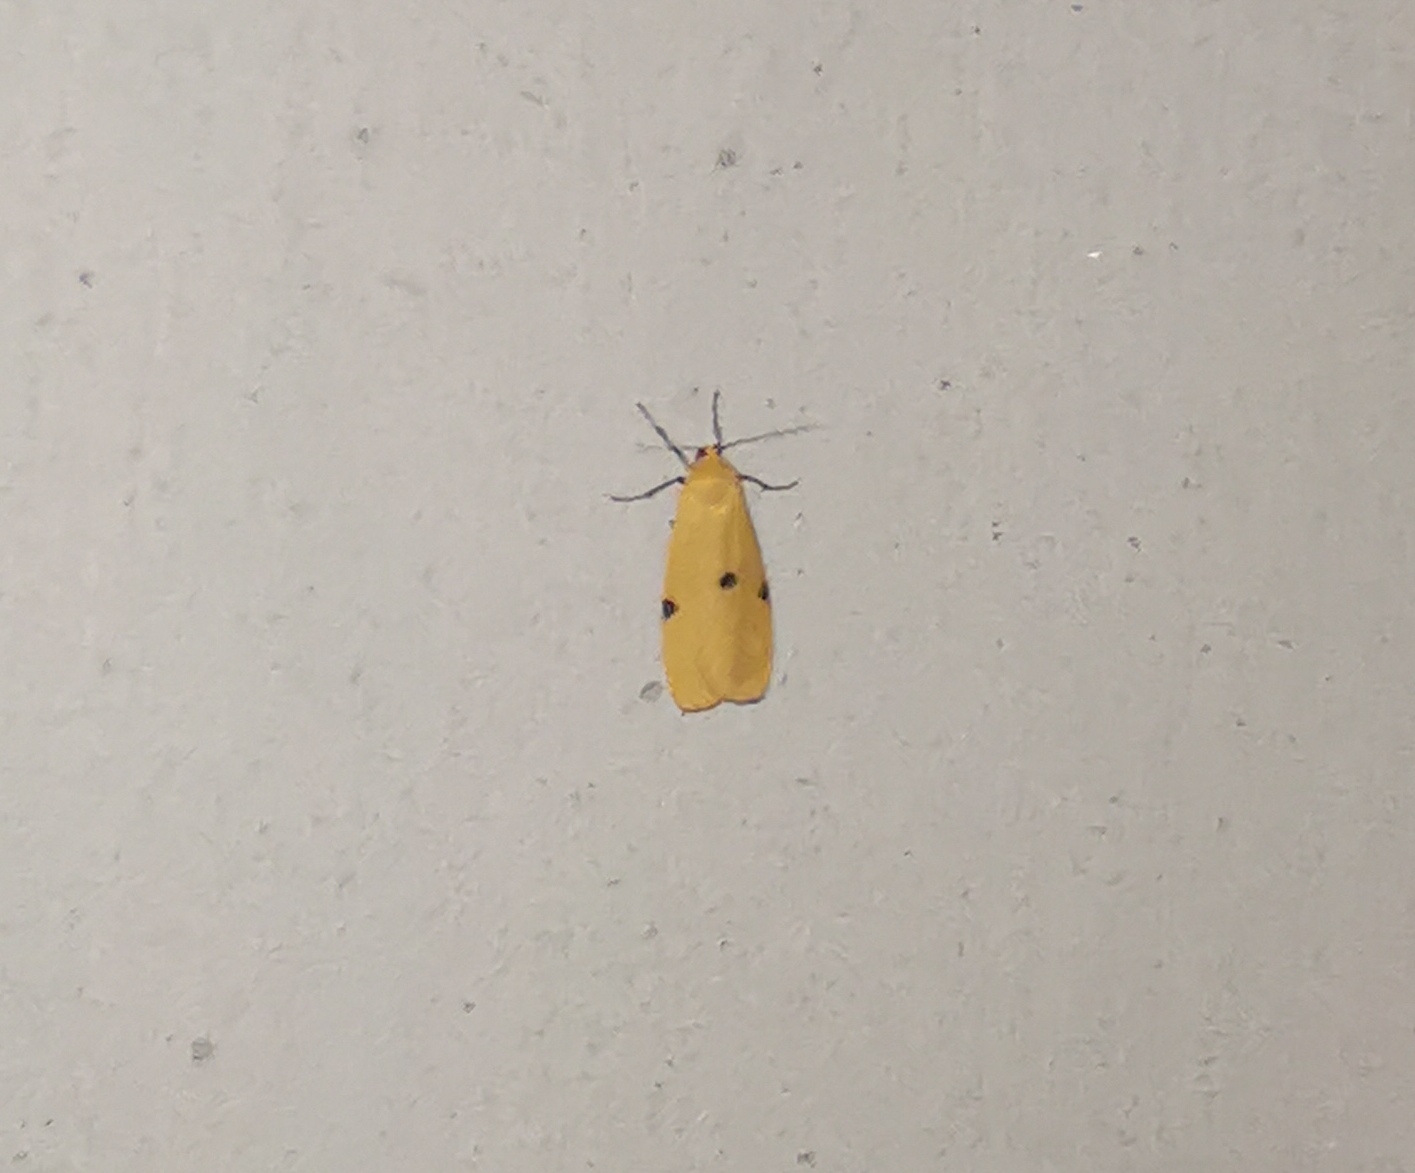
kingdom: Animalia
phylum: Arthropoda
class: Insecta
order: Lepidoptera
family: Erebidae
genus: Lithosia
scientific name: Lithosia quadra
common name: Four-spotted footman
